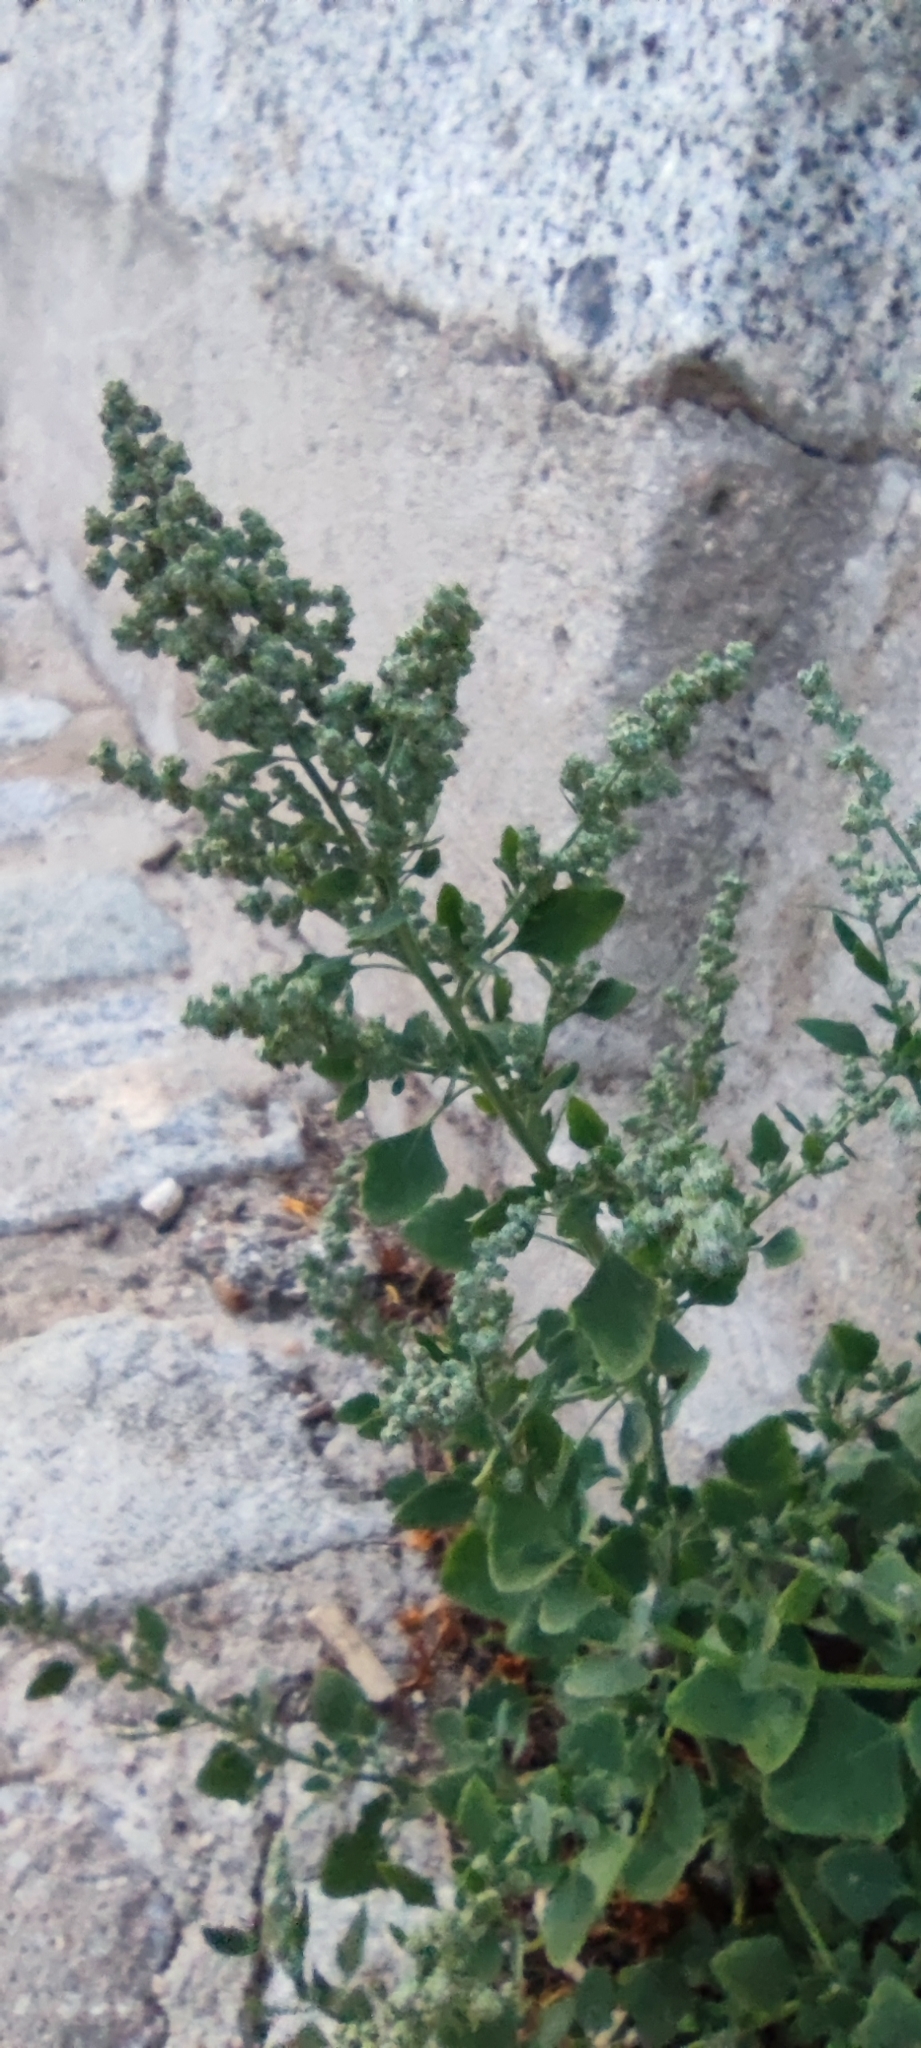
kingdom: Plantae
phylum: Tracheophyta
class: Magnoliopsida
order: Caryophyllales
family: Amaranthaceae
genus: Chenopodium
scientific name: Chenopodium album
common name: Fat-hen
